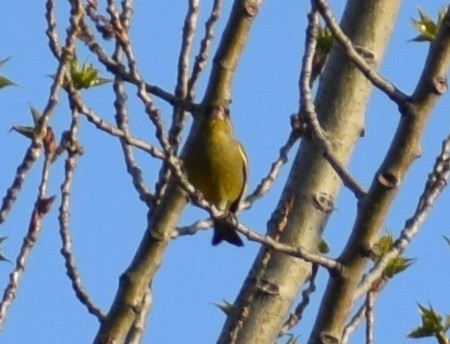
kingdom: Plantae
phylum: Tracheophyta
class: Liliopsida
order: Poales
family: Poaceae
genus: Chloris
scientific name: Chloris chloris
